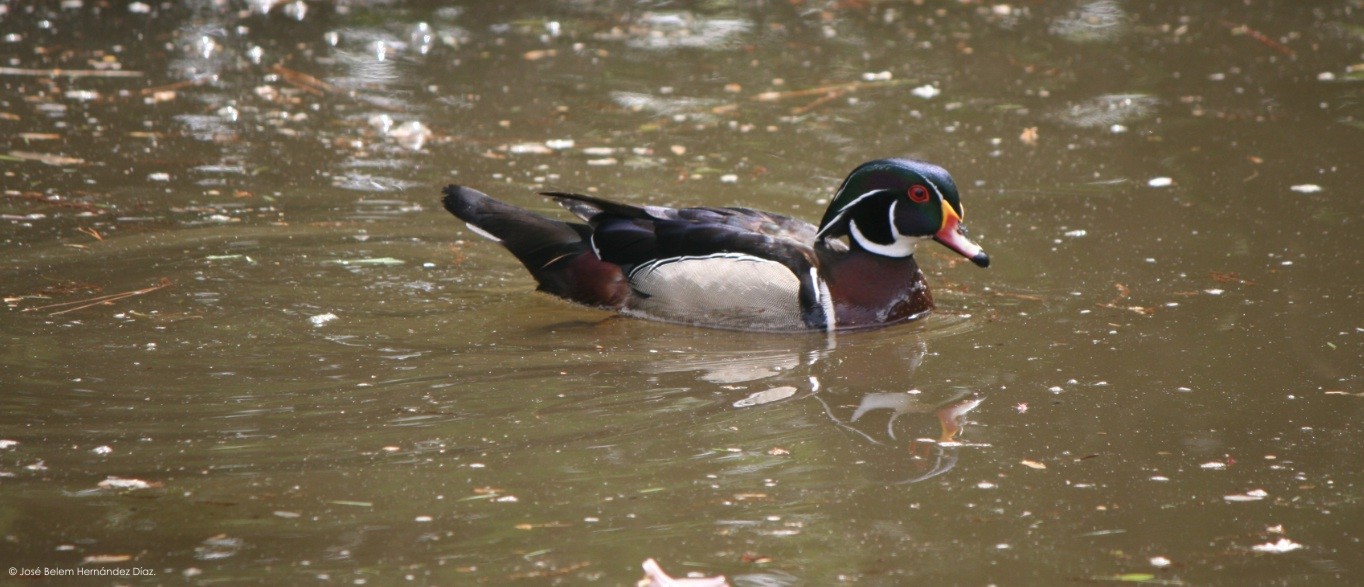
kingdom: Animalia
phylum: Chordata
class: Aves
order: Anseriformes
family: Anatidae
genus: Aix
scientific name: Aix sponsa
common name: Wood duck
